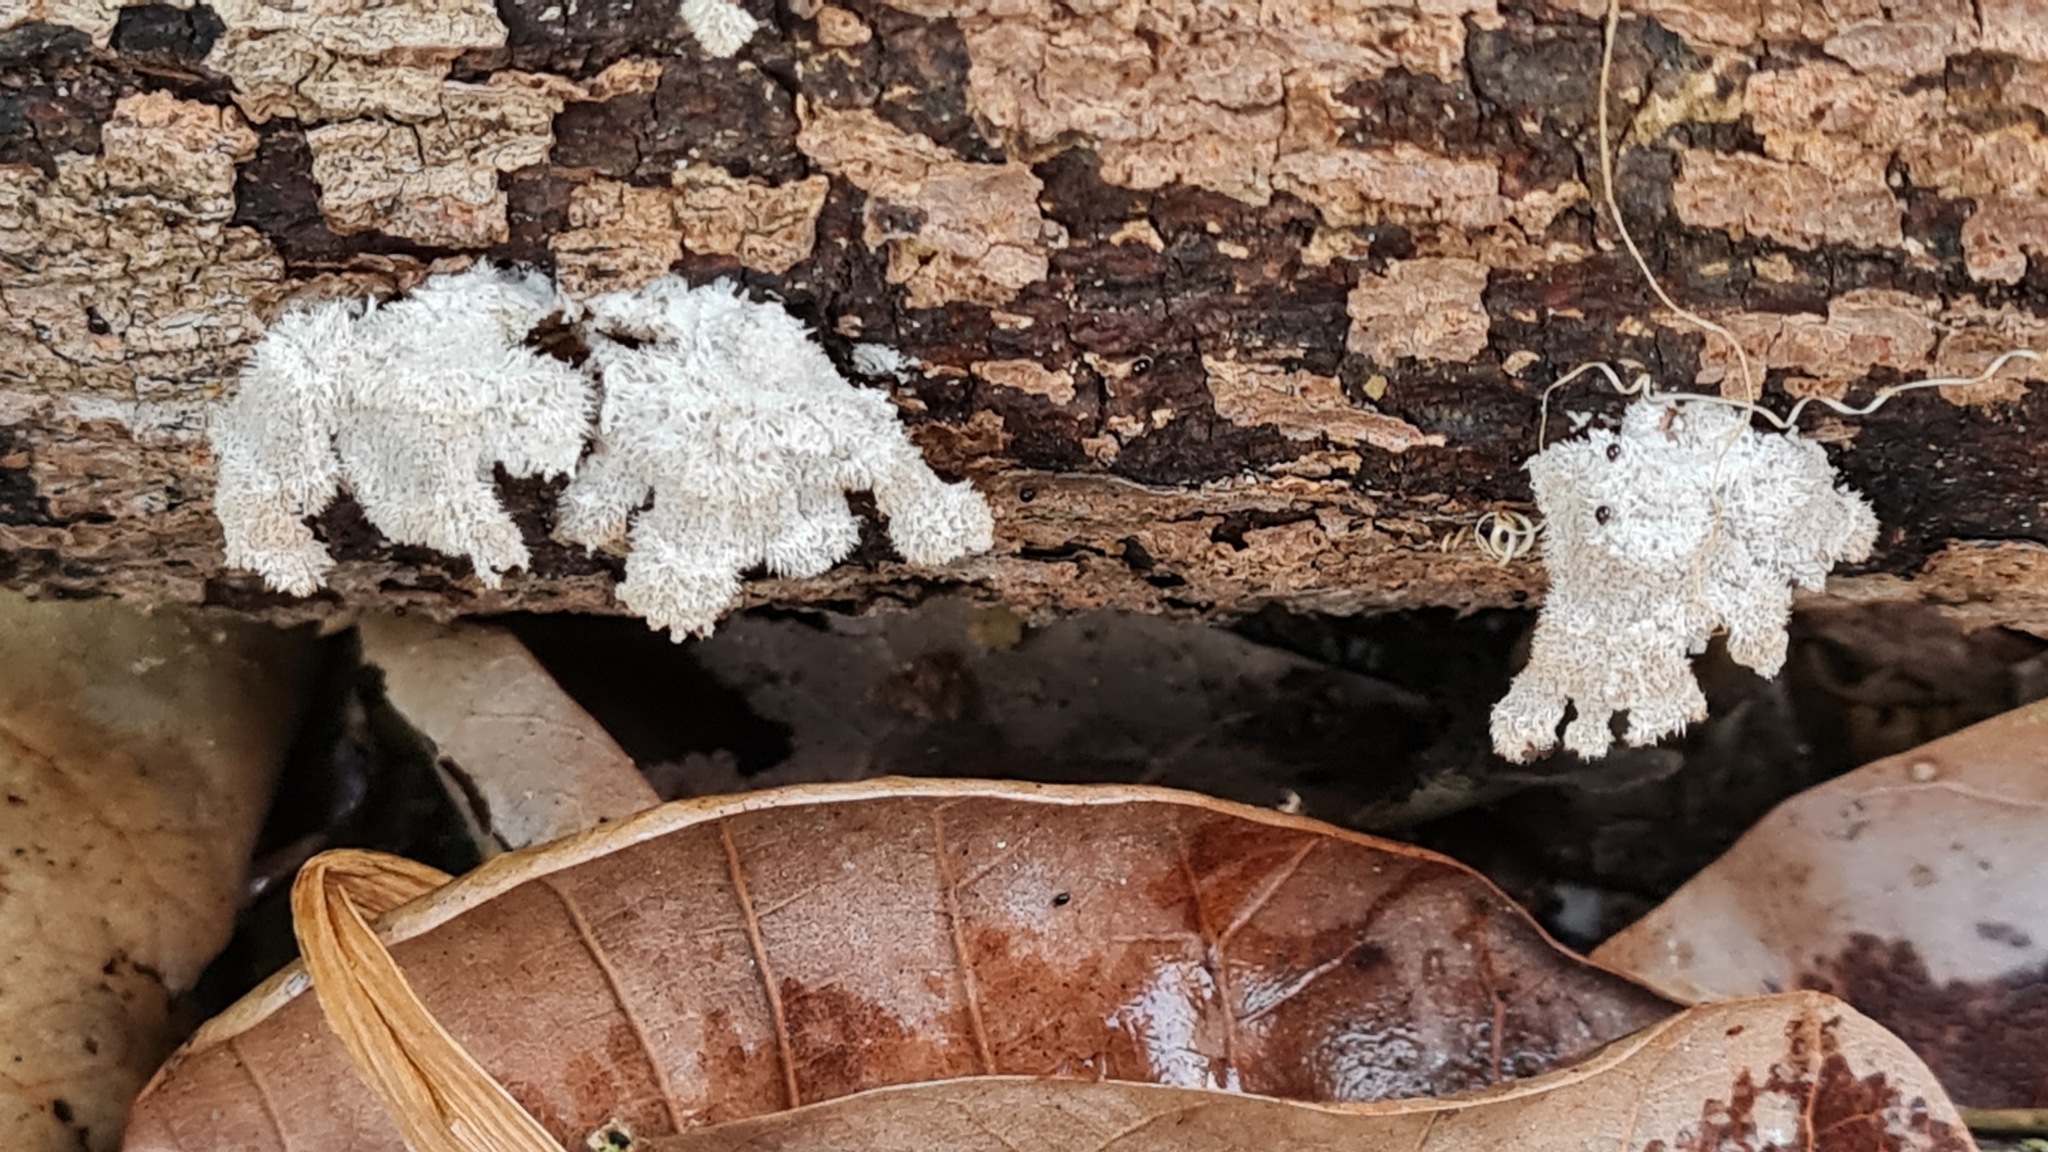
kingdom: Fungi
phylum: Basidiomycota
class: Agaricomycetes
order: Agaricales
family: Schizophyllaceae
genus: Schizophyllum
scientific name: Schizophyllum commune
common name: Common porecrust
